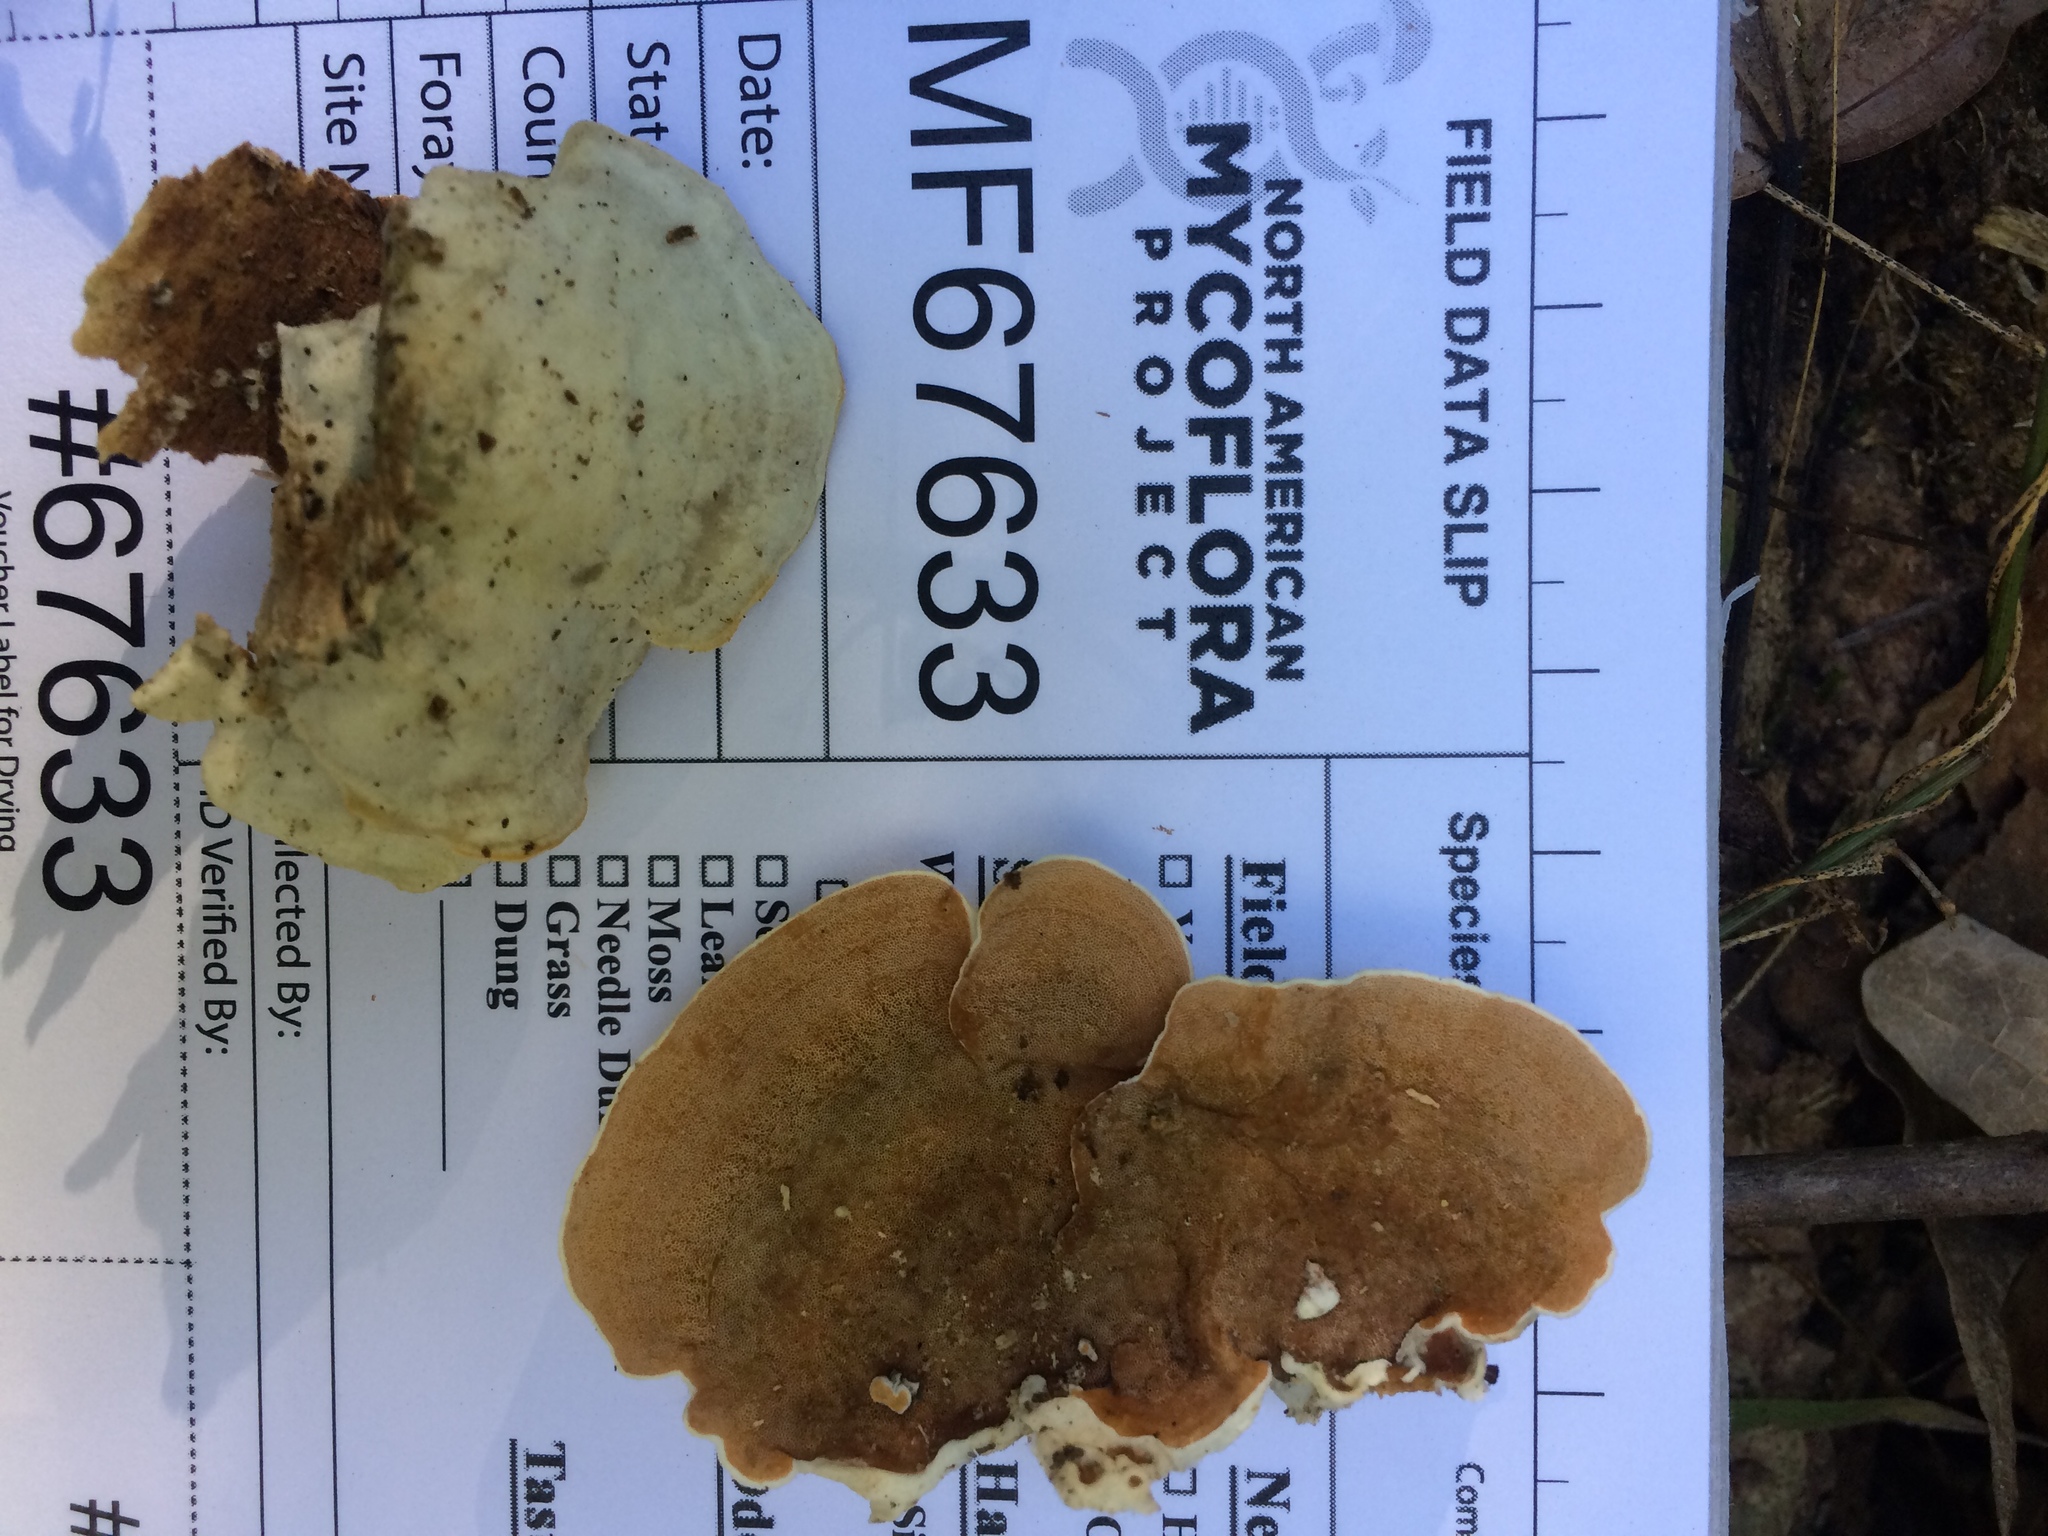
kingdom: Fungi
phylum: Basidiomycota
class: Agaricomycetes
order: Polyporales
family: Irpicaceae
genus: Vitreoporus
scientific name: Vitreoporus dichrous
